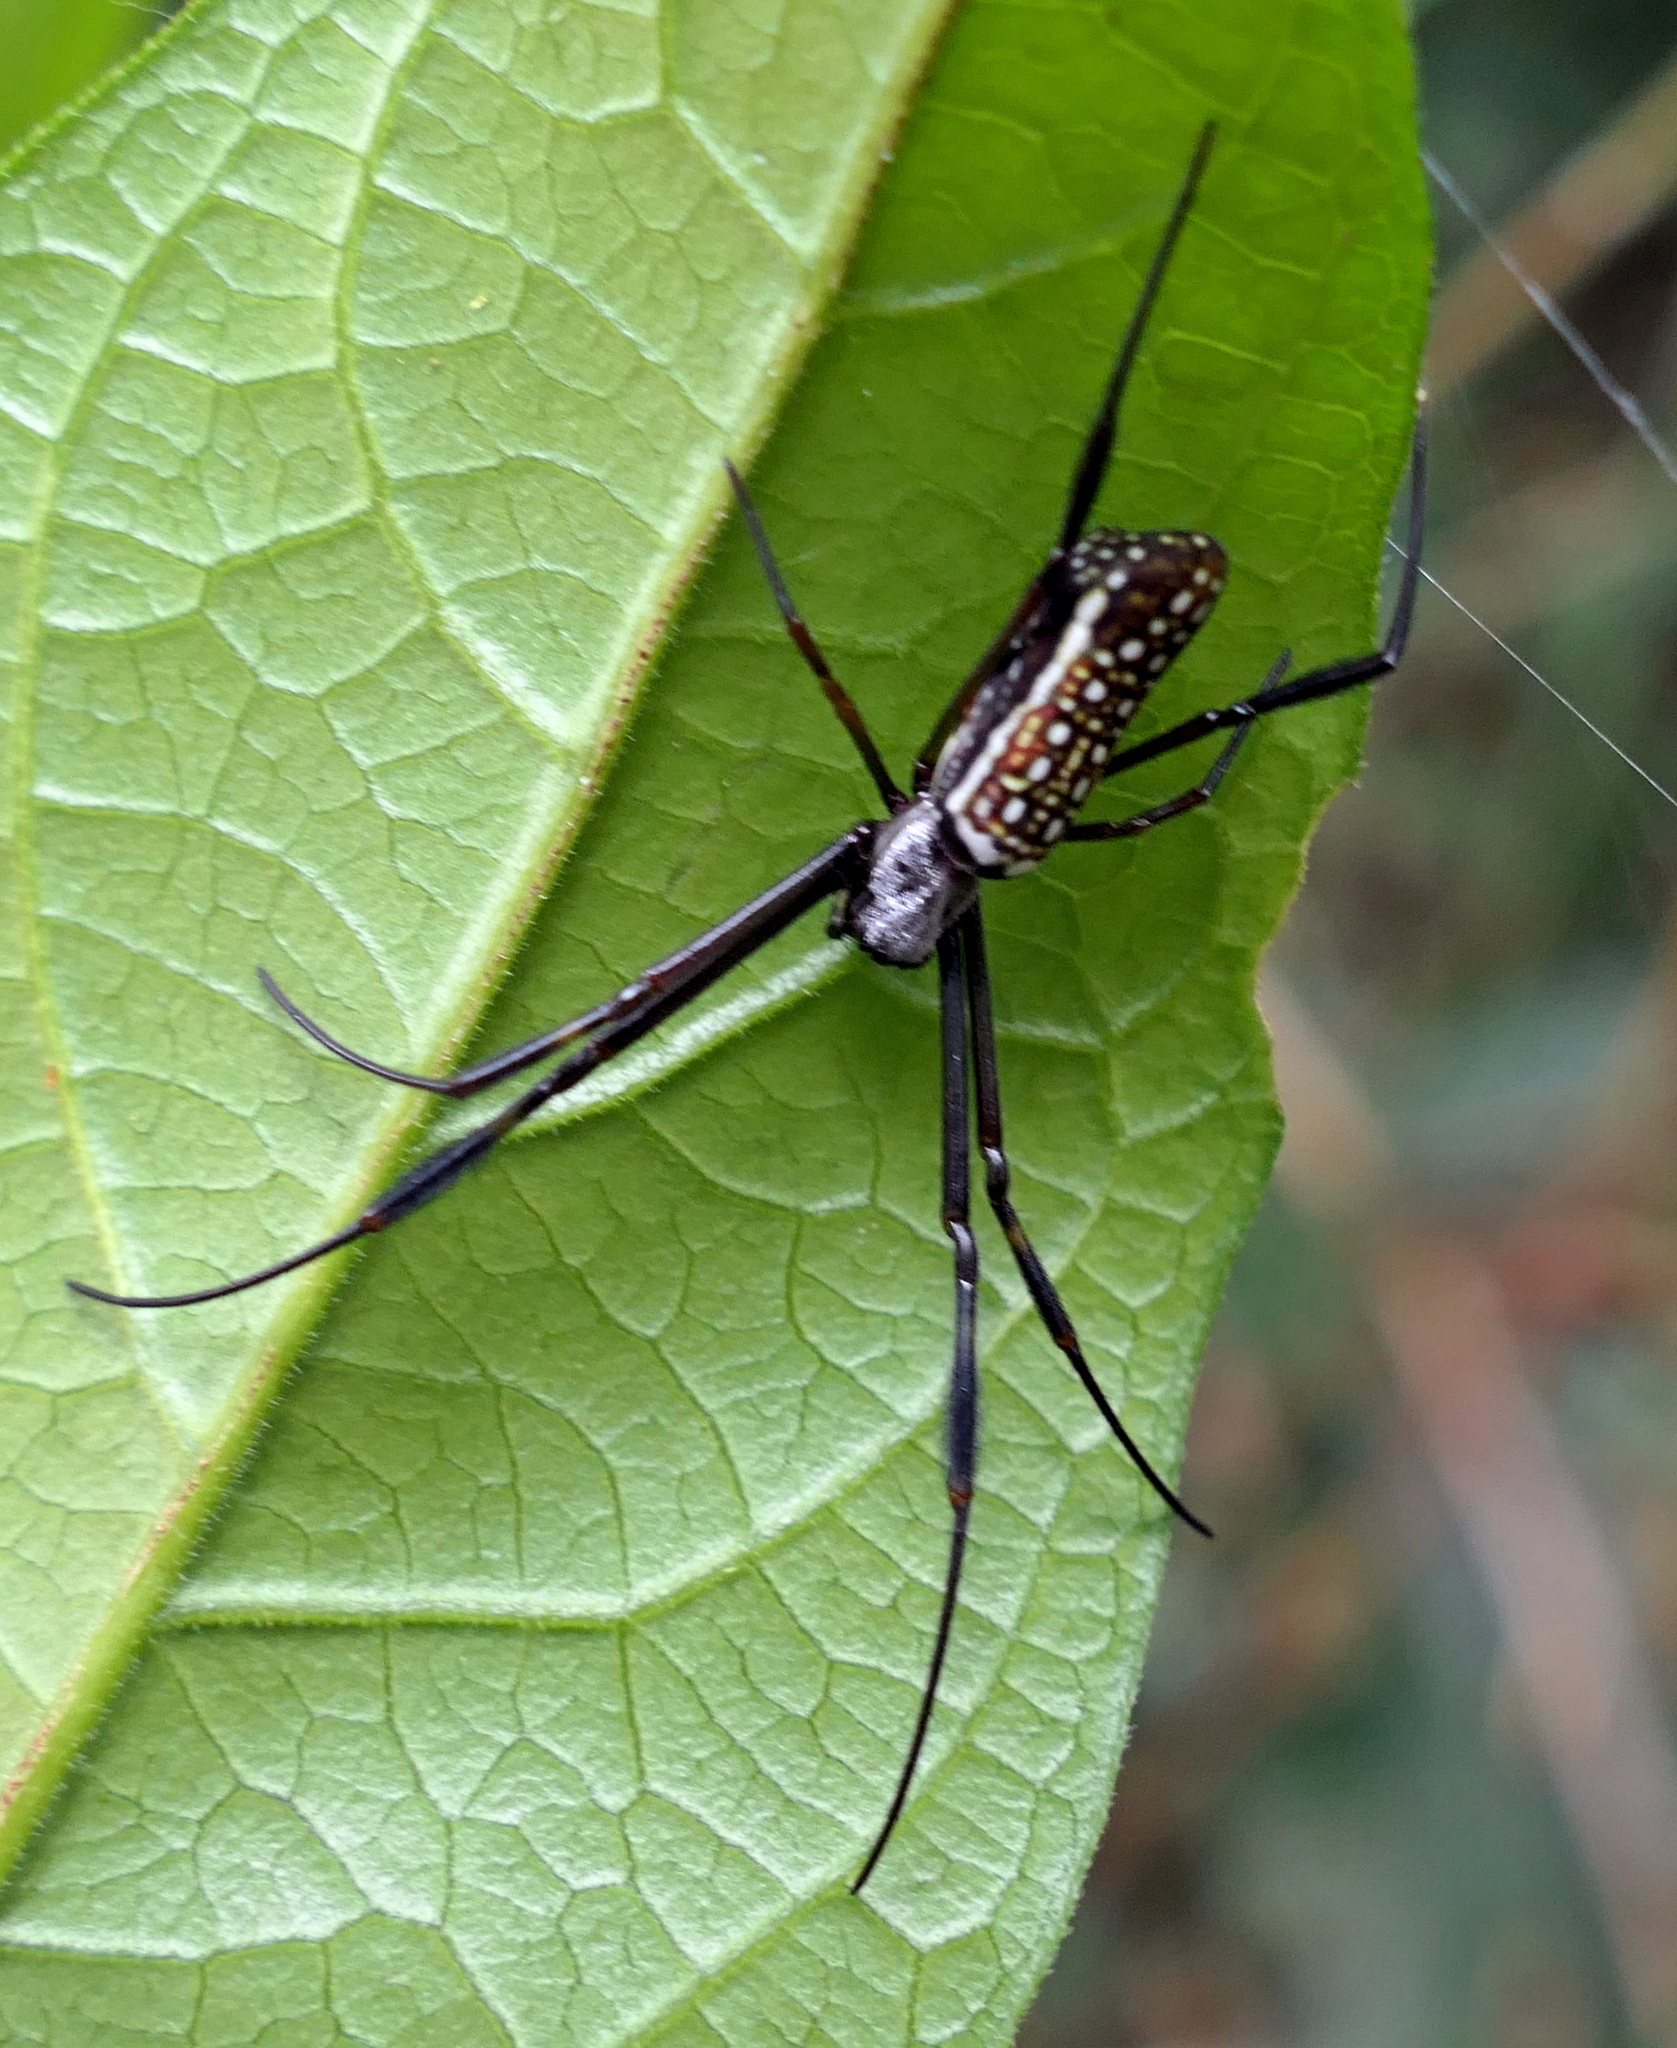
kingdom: Animalia
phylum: Arthropoda
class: Arachnida
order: Araneae
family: Araneidae
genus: Trichonephila
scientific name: Trichonephila clavipes
